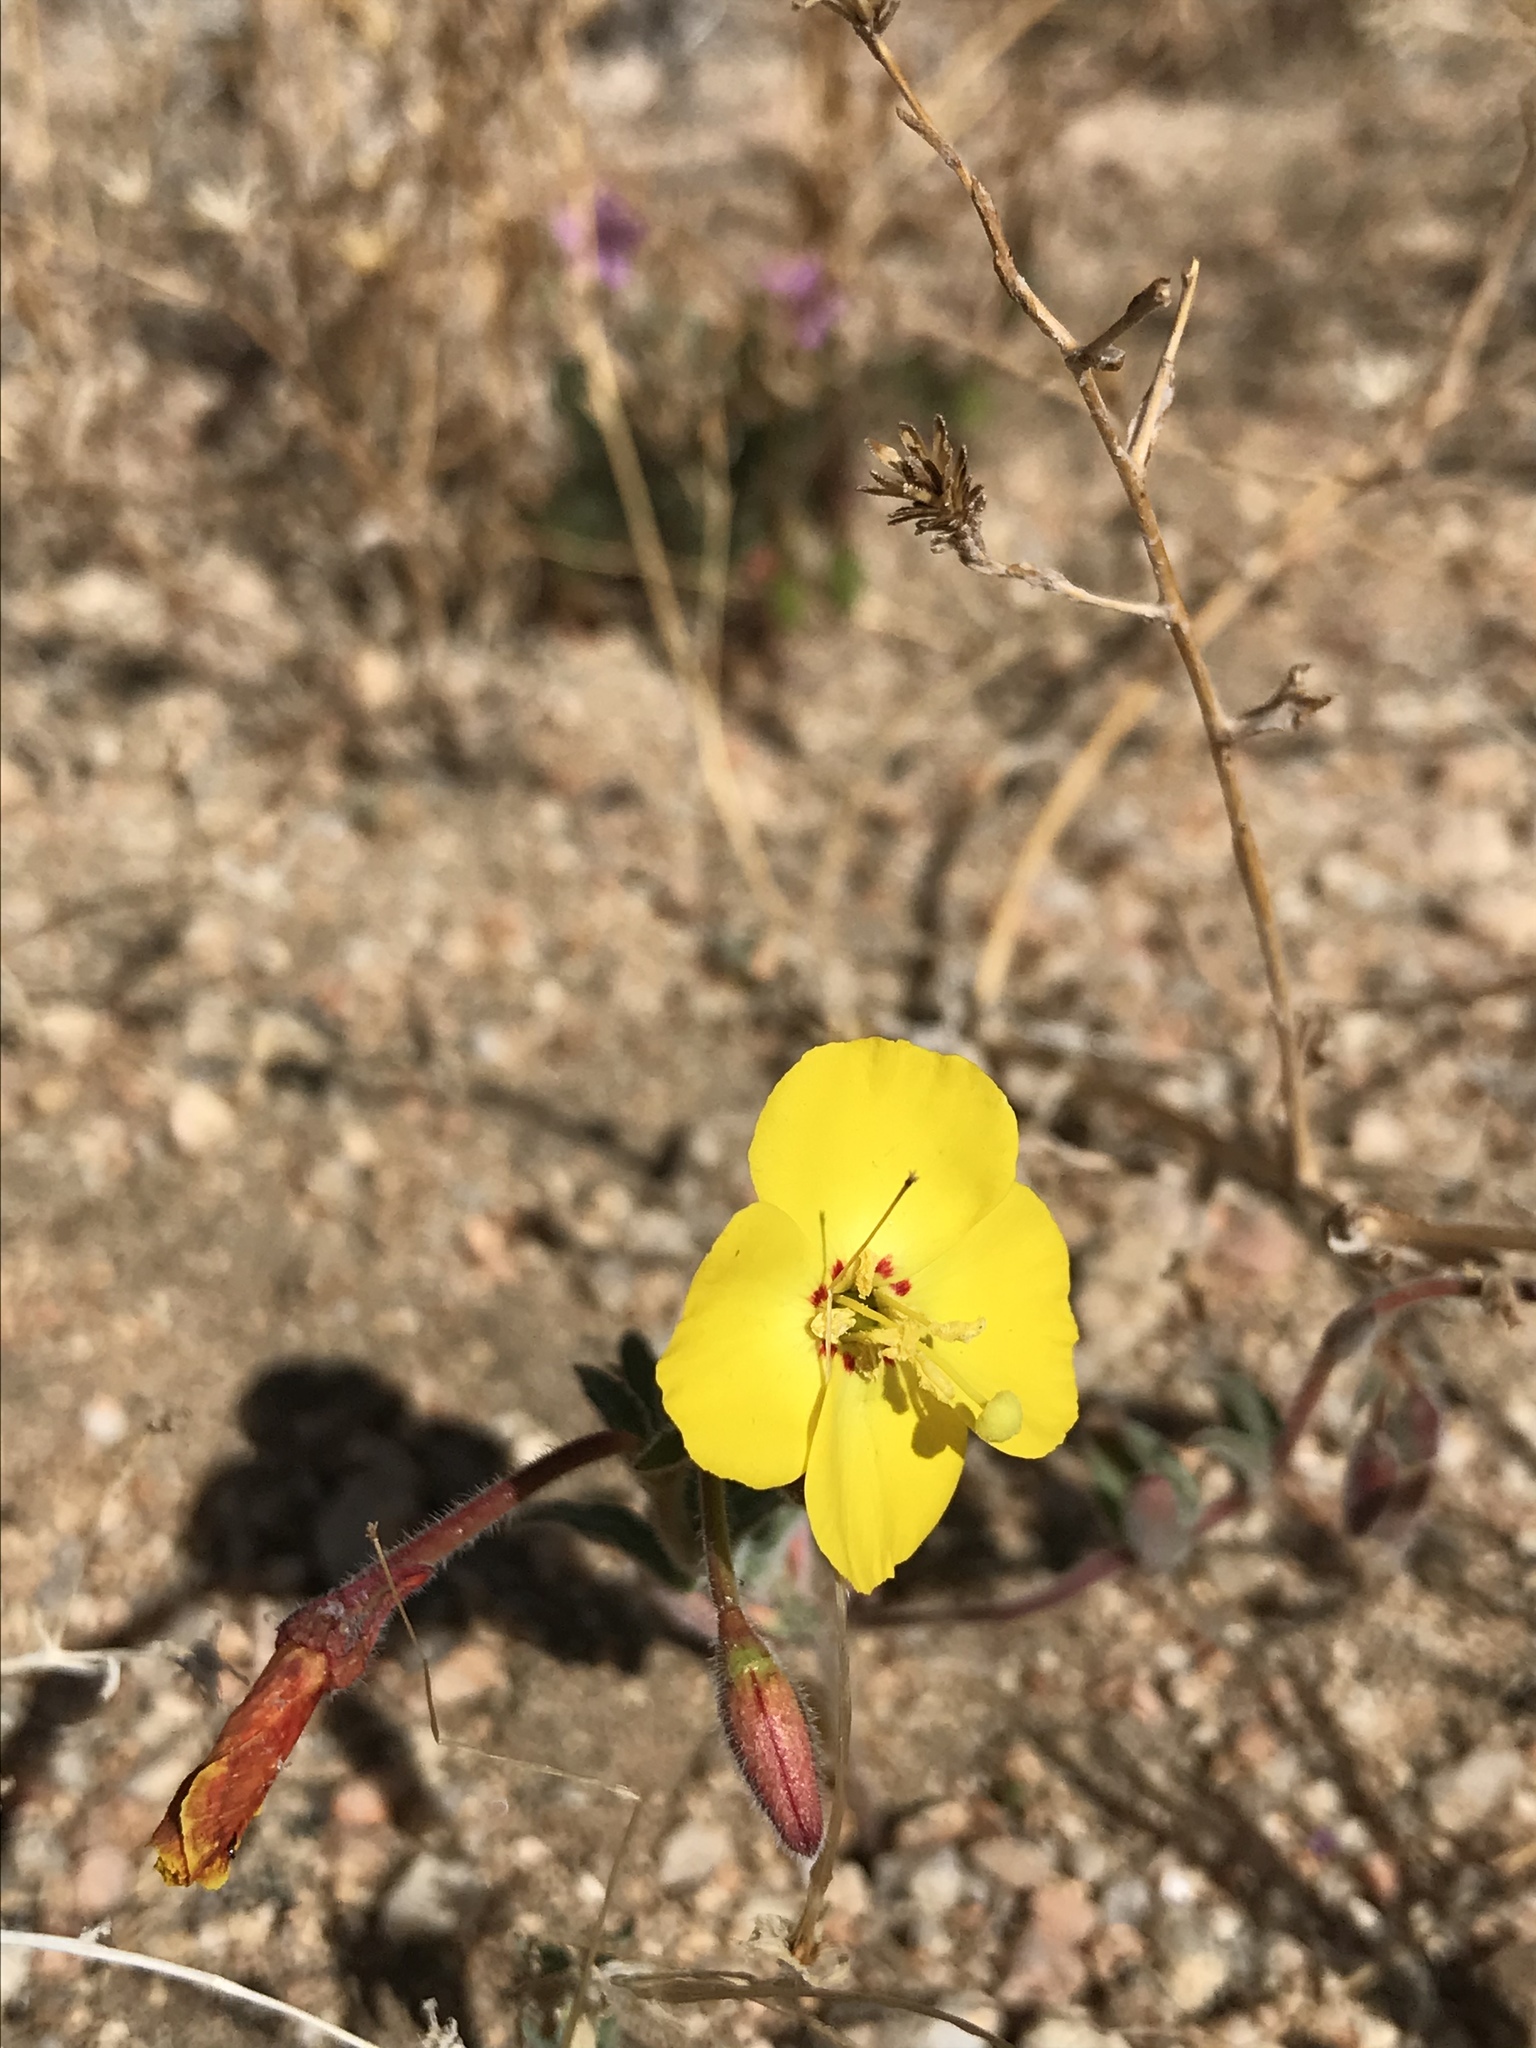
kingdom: Plantae
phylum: Tracheophyta
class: Magnoliopsida
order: Myrtales
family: Onagraceae
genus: Chylismia
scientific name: Chylismia brevipes
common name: Yellow cups
